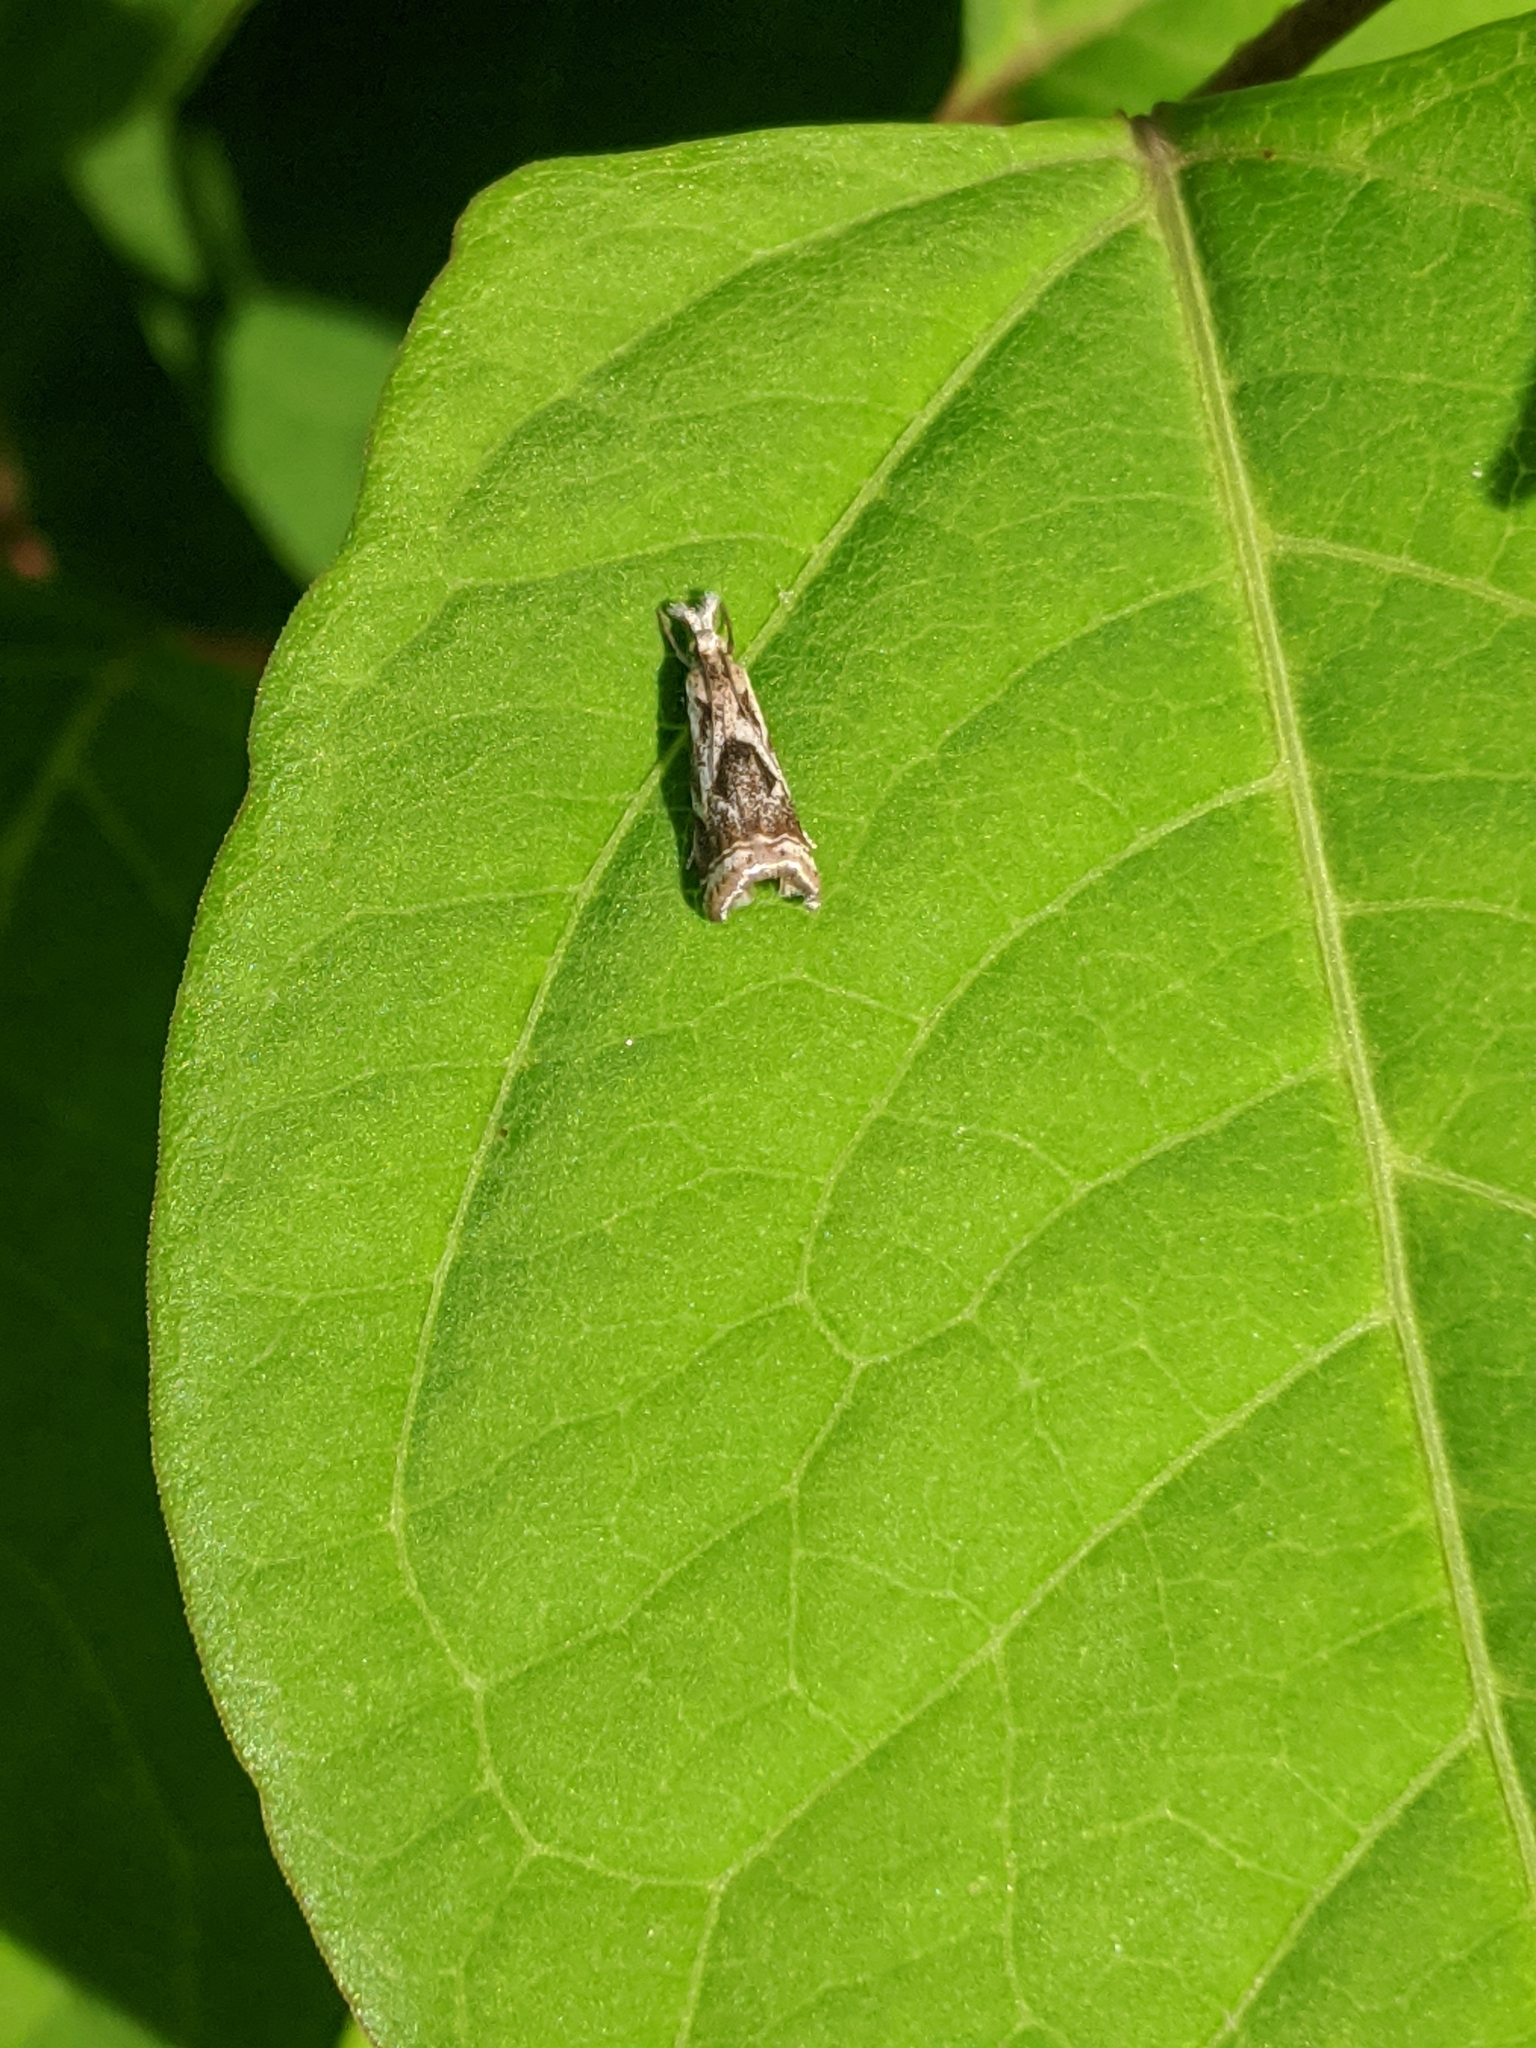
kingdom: Animalia
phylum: Arthropoda
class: Insecta
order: Lepidoptera
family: Crambidae
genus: Microcrambus
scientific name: Microcrambus elegans
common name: Elegant grass-veneer
